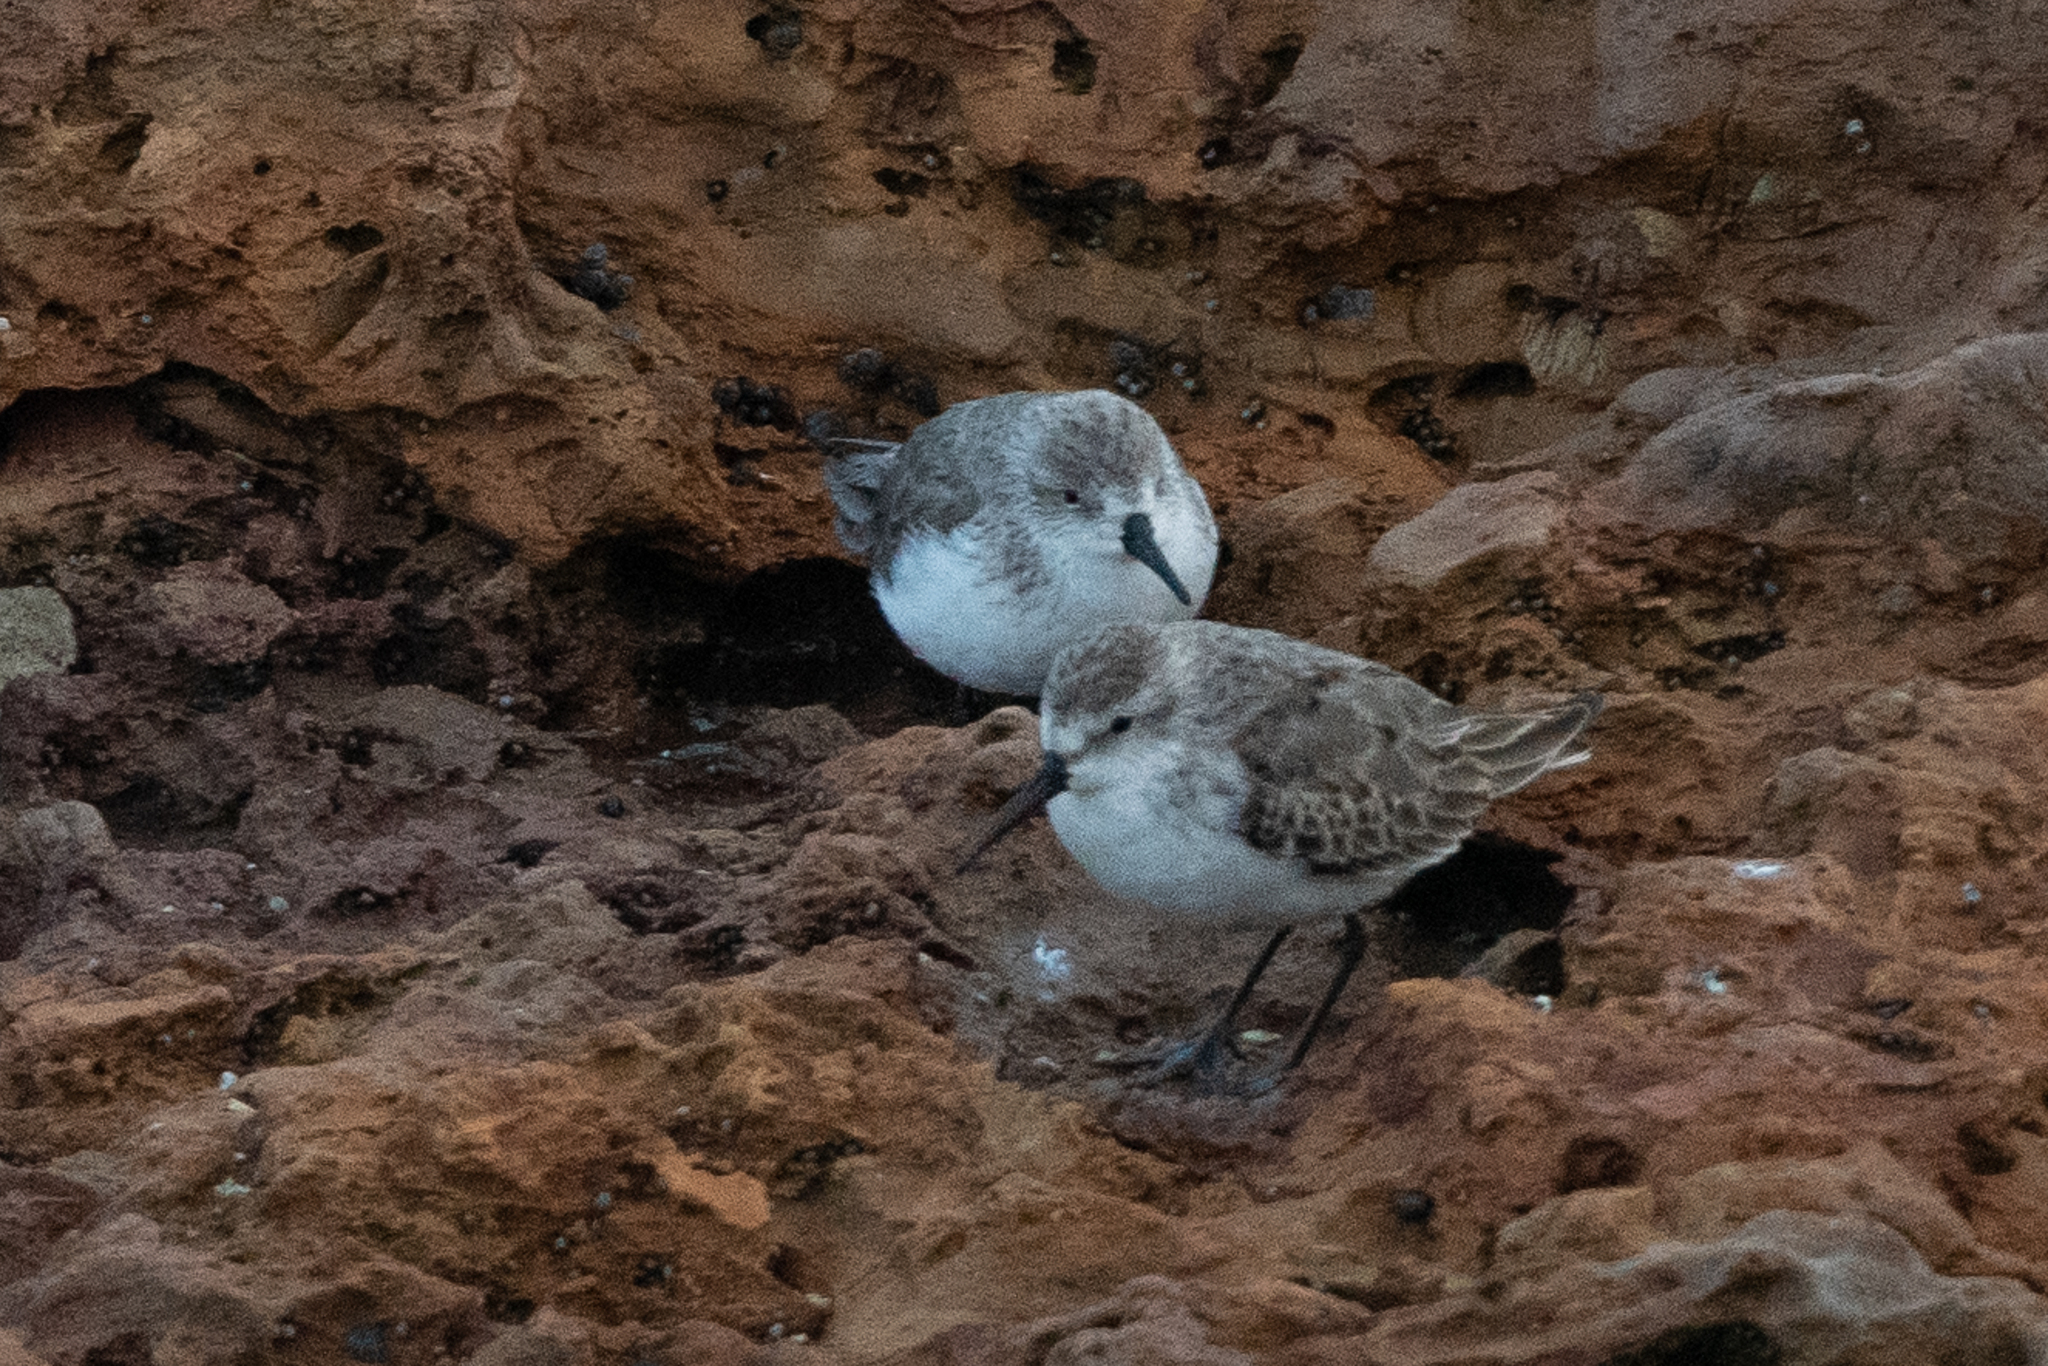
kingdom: Animalia
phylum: Chordata
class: Aves
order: Charadriiformes
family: Scolopacidae
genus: Calidris
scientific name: Calidris mauri
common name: Western sandpiper
